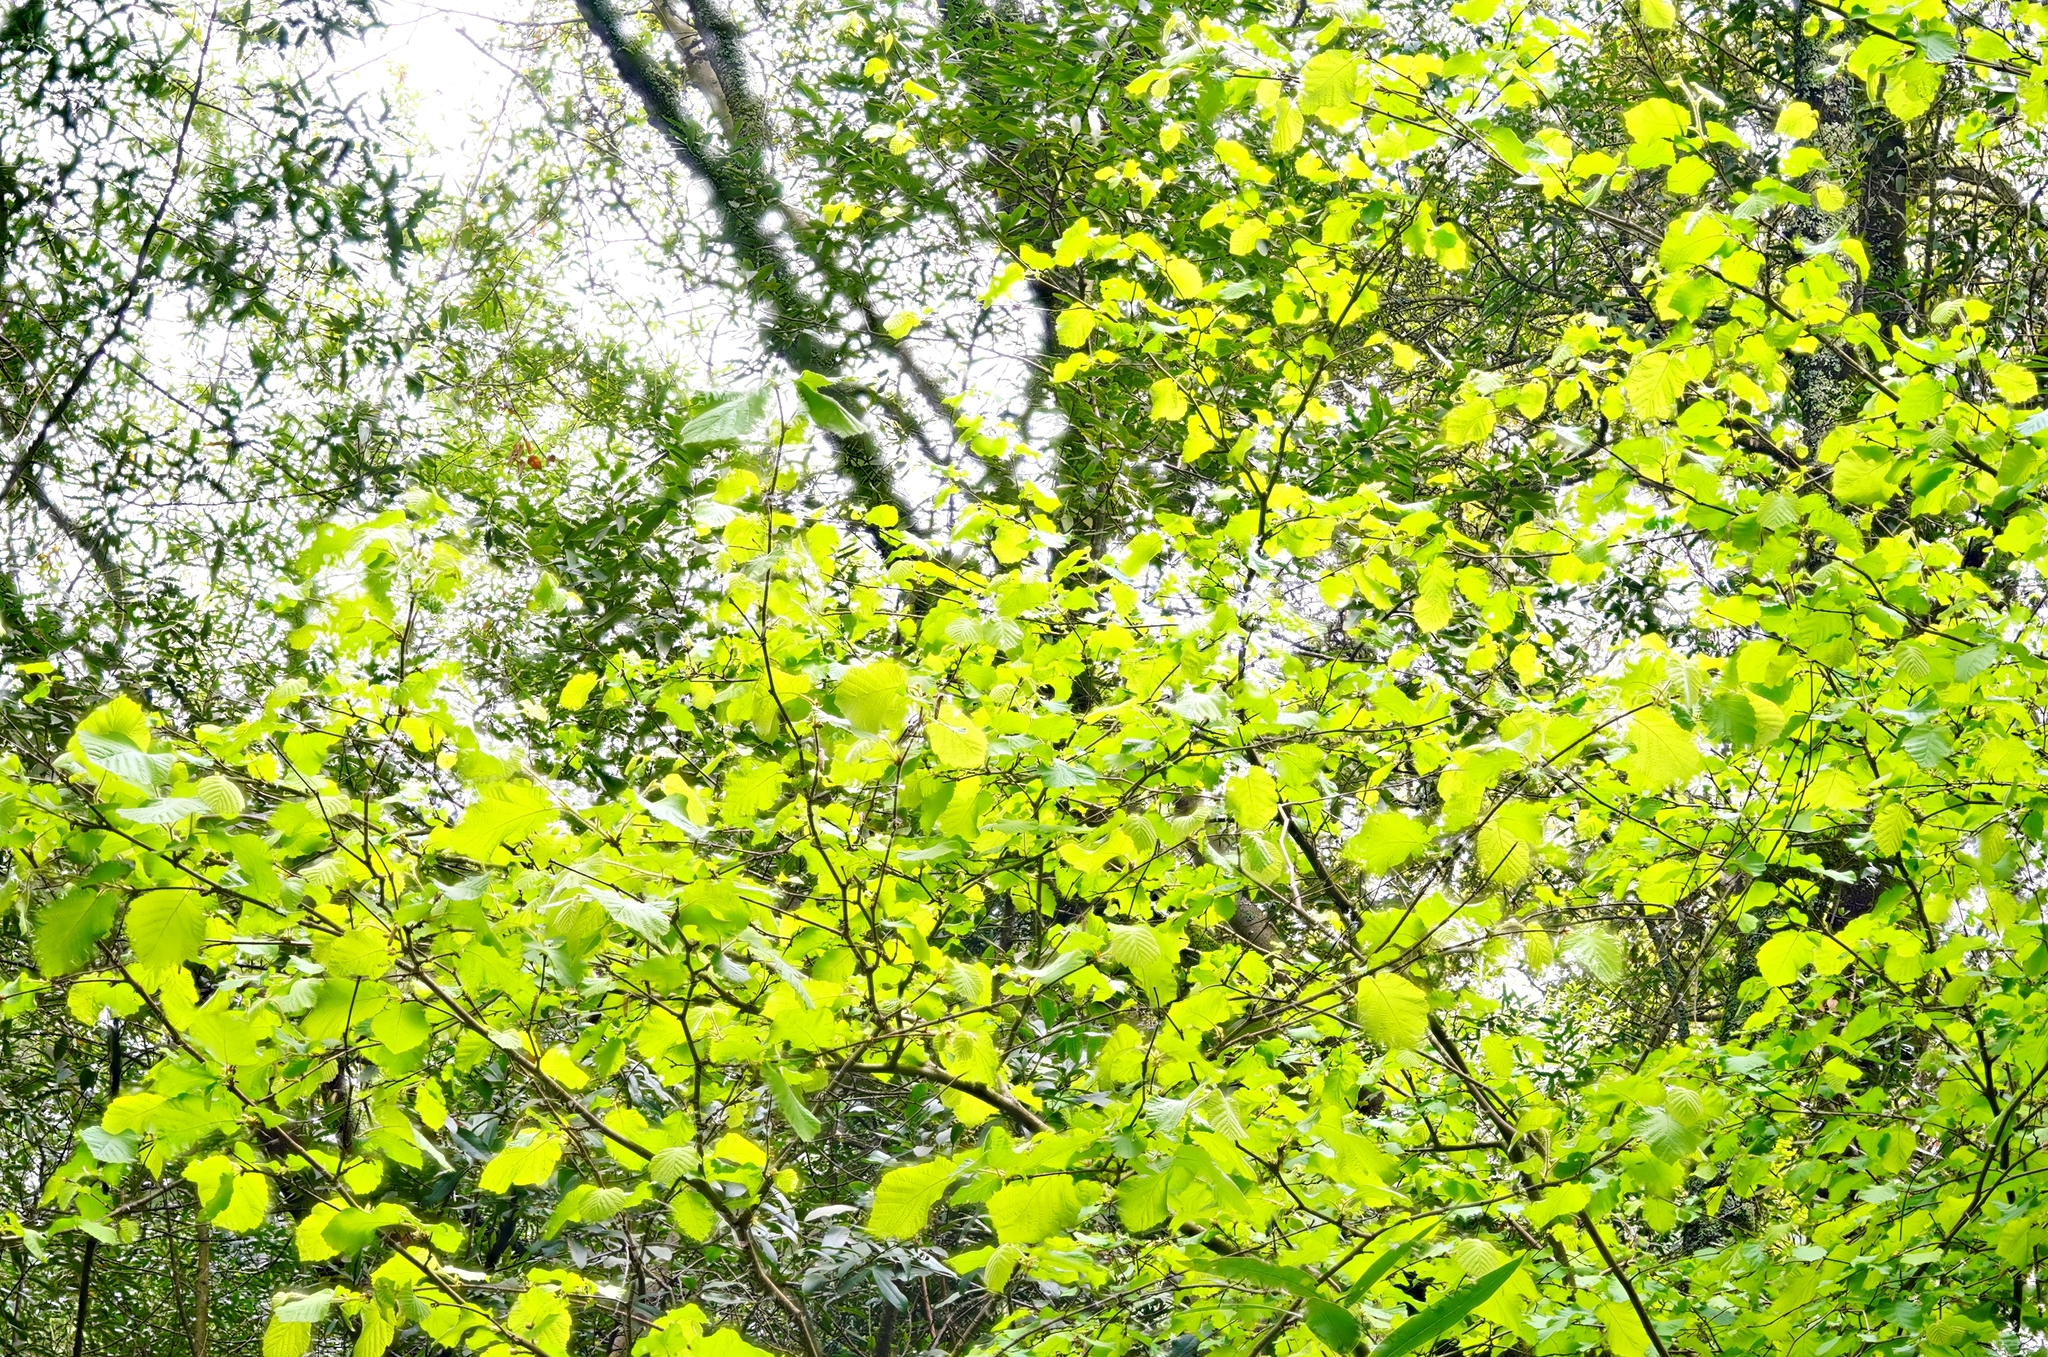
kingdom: Plantae
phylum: Tracheophyta
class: Magnoliopsida
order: Fagales
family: Betulaceae
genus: Corylus
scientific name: Corylus cornuta
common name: Beaked hazel
